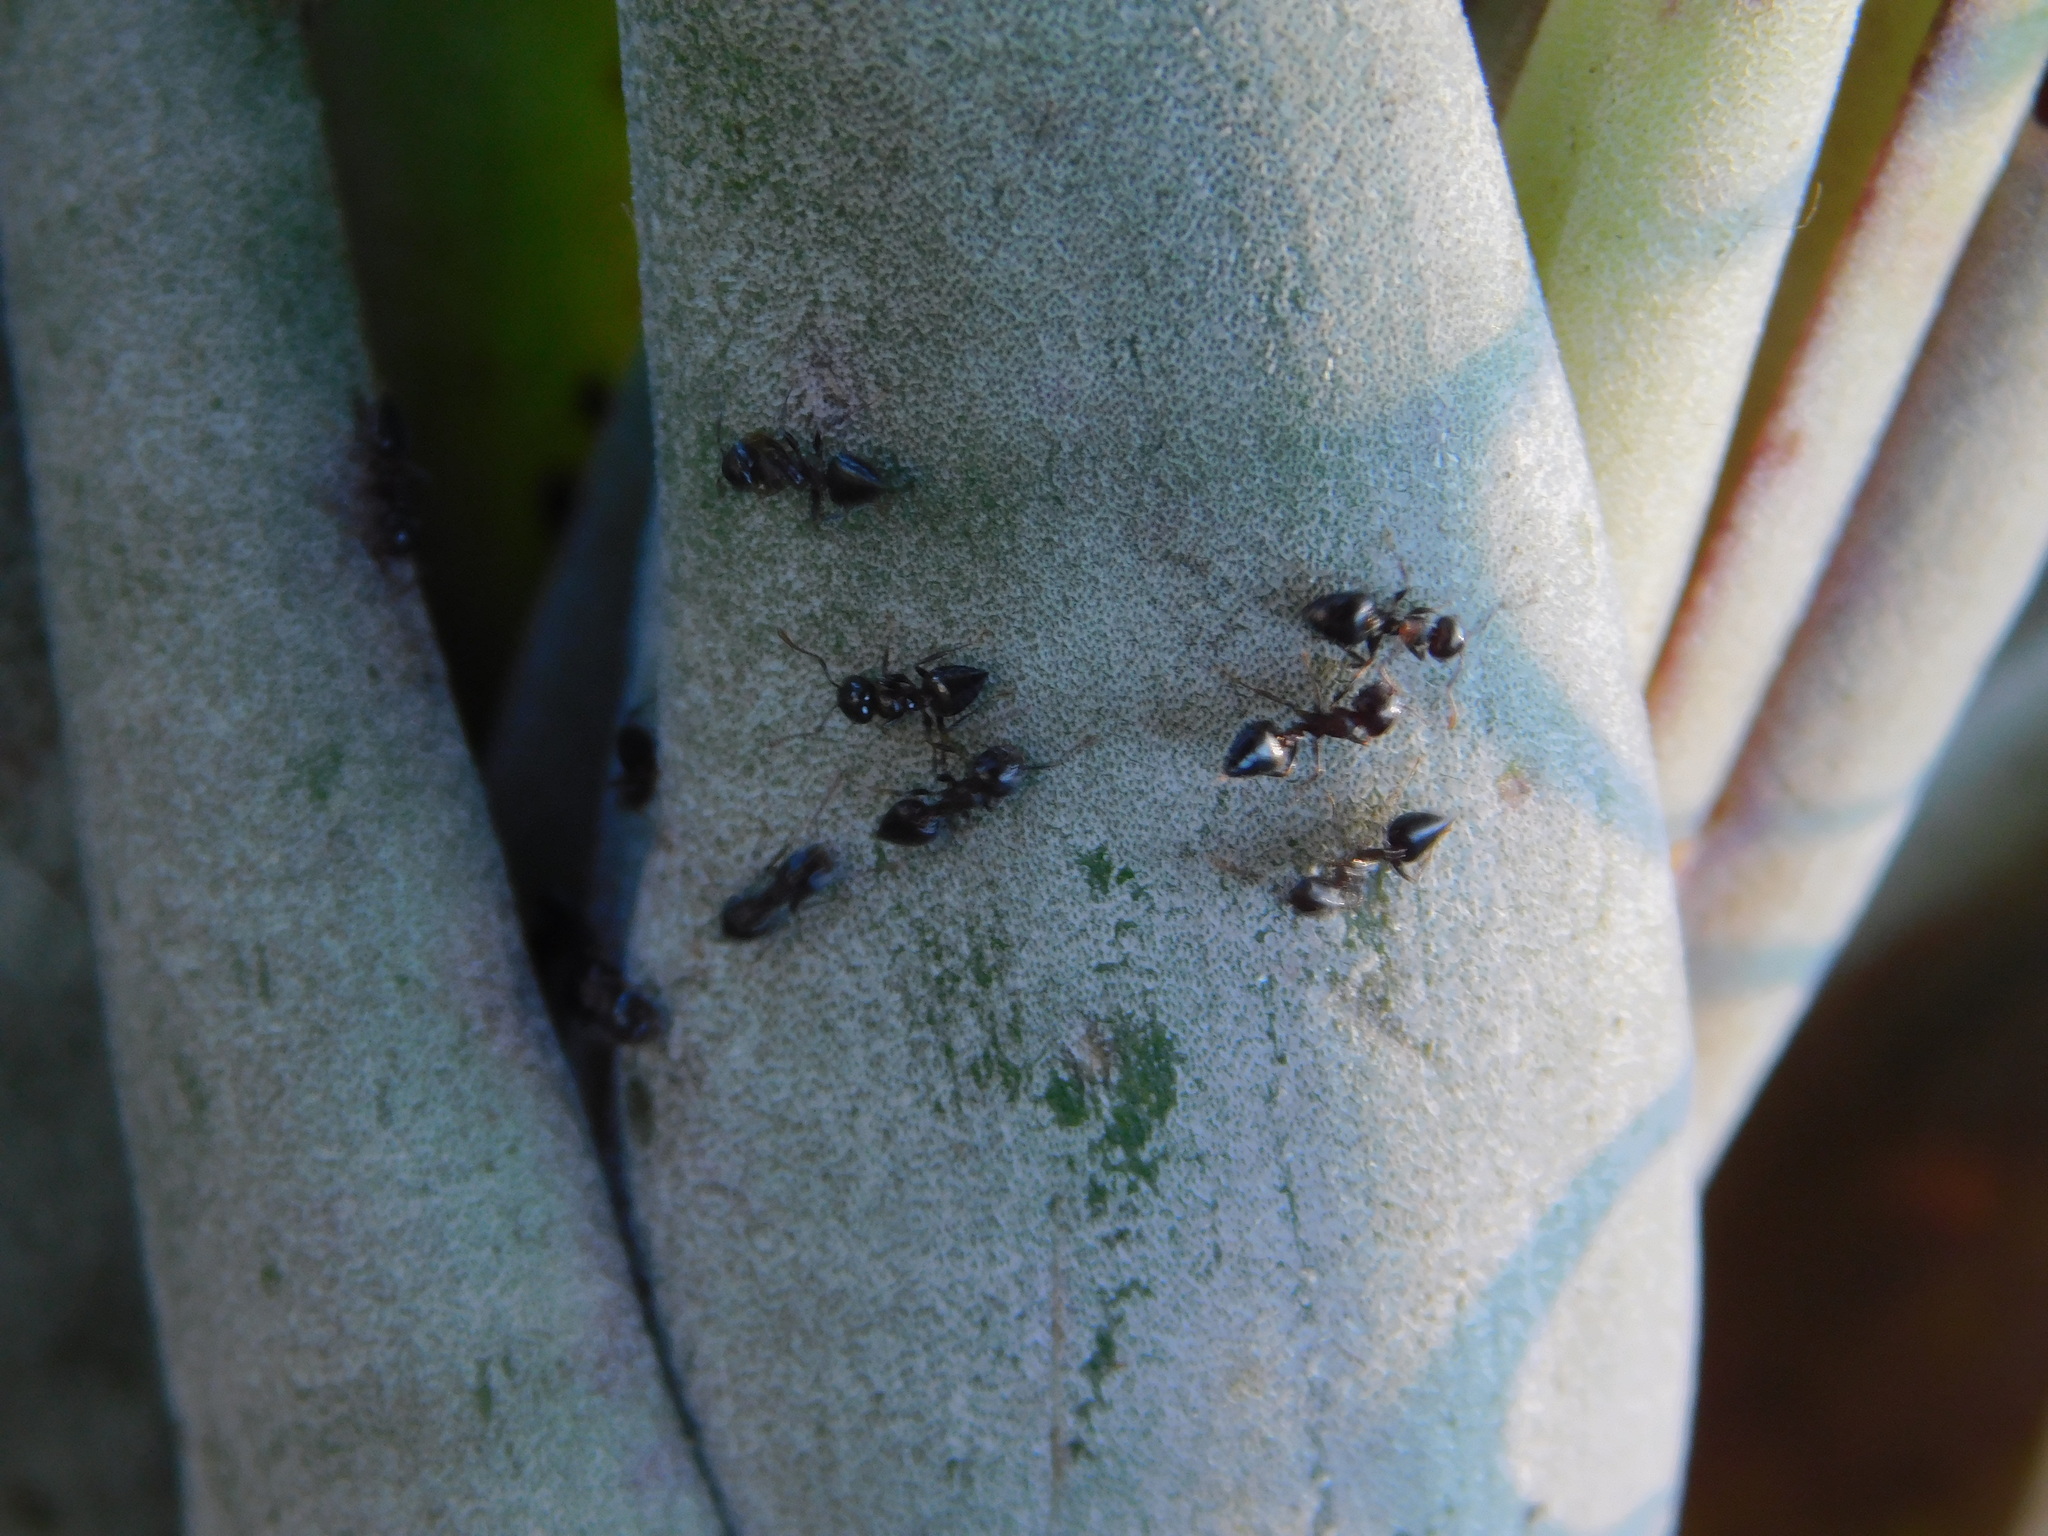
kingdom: Animalia
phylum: Arthropoda
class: Insecta
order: Hymenoptera
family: Formicidae
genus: Crematogaster
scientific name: Crematogaster ashmeadi
